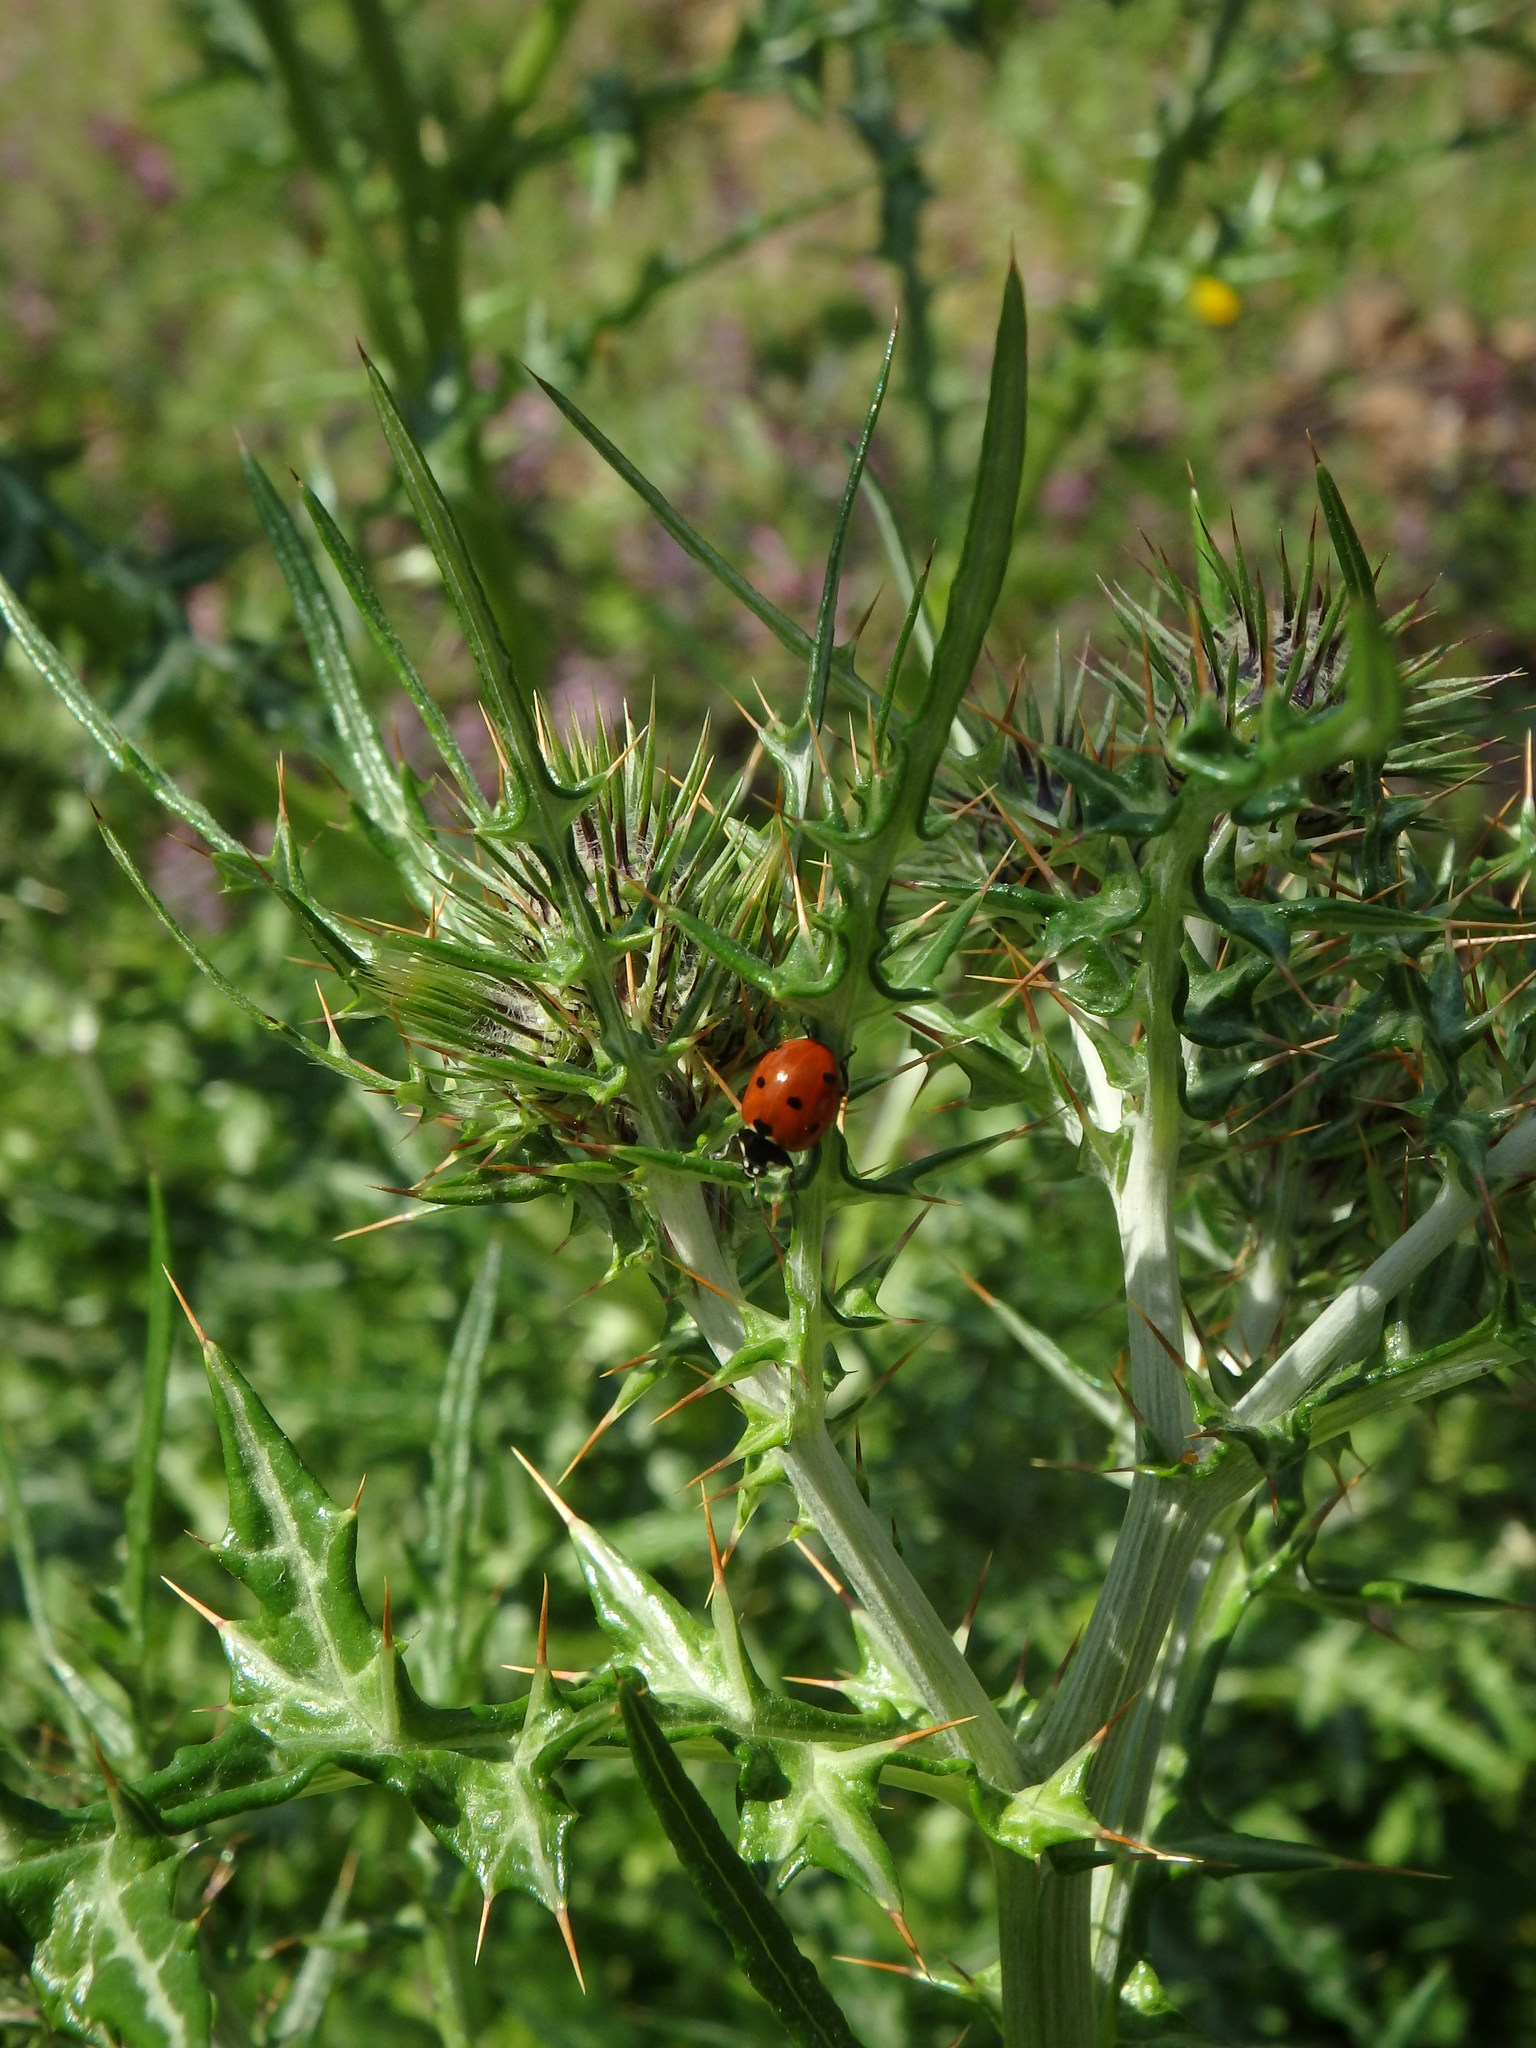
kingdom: Animalia
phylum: Arthropoda
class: Insecta
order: Coleoptera
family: Coccinellidae
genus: Coccinella
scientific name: Coccinella septempunctata
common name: Sevenspotted lady beetle
